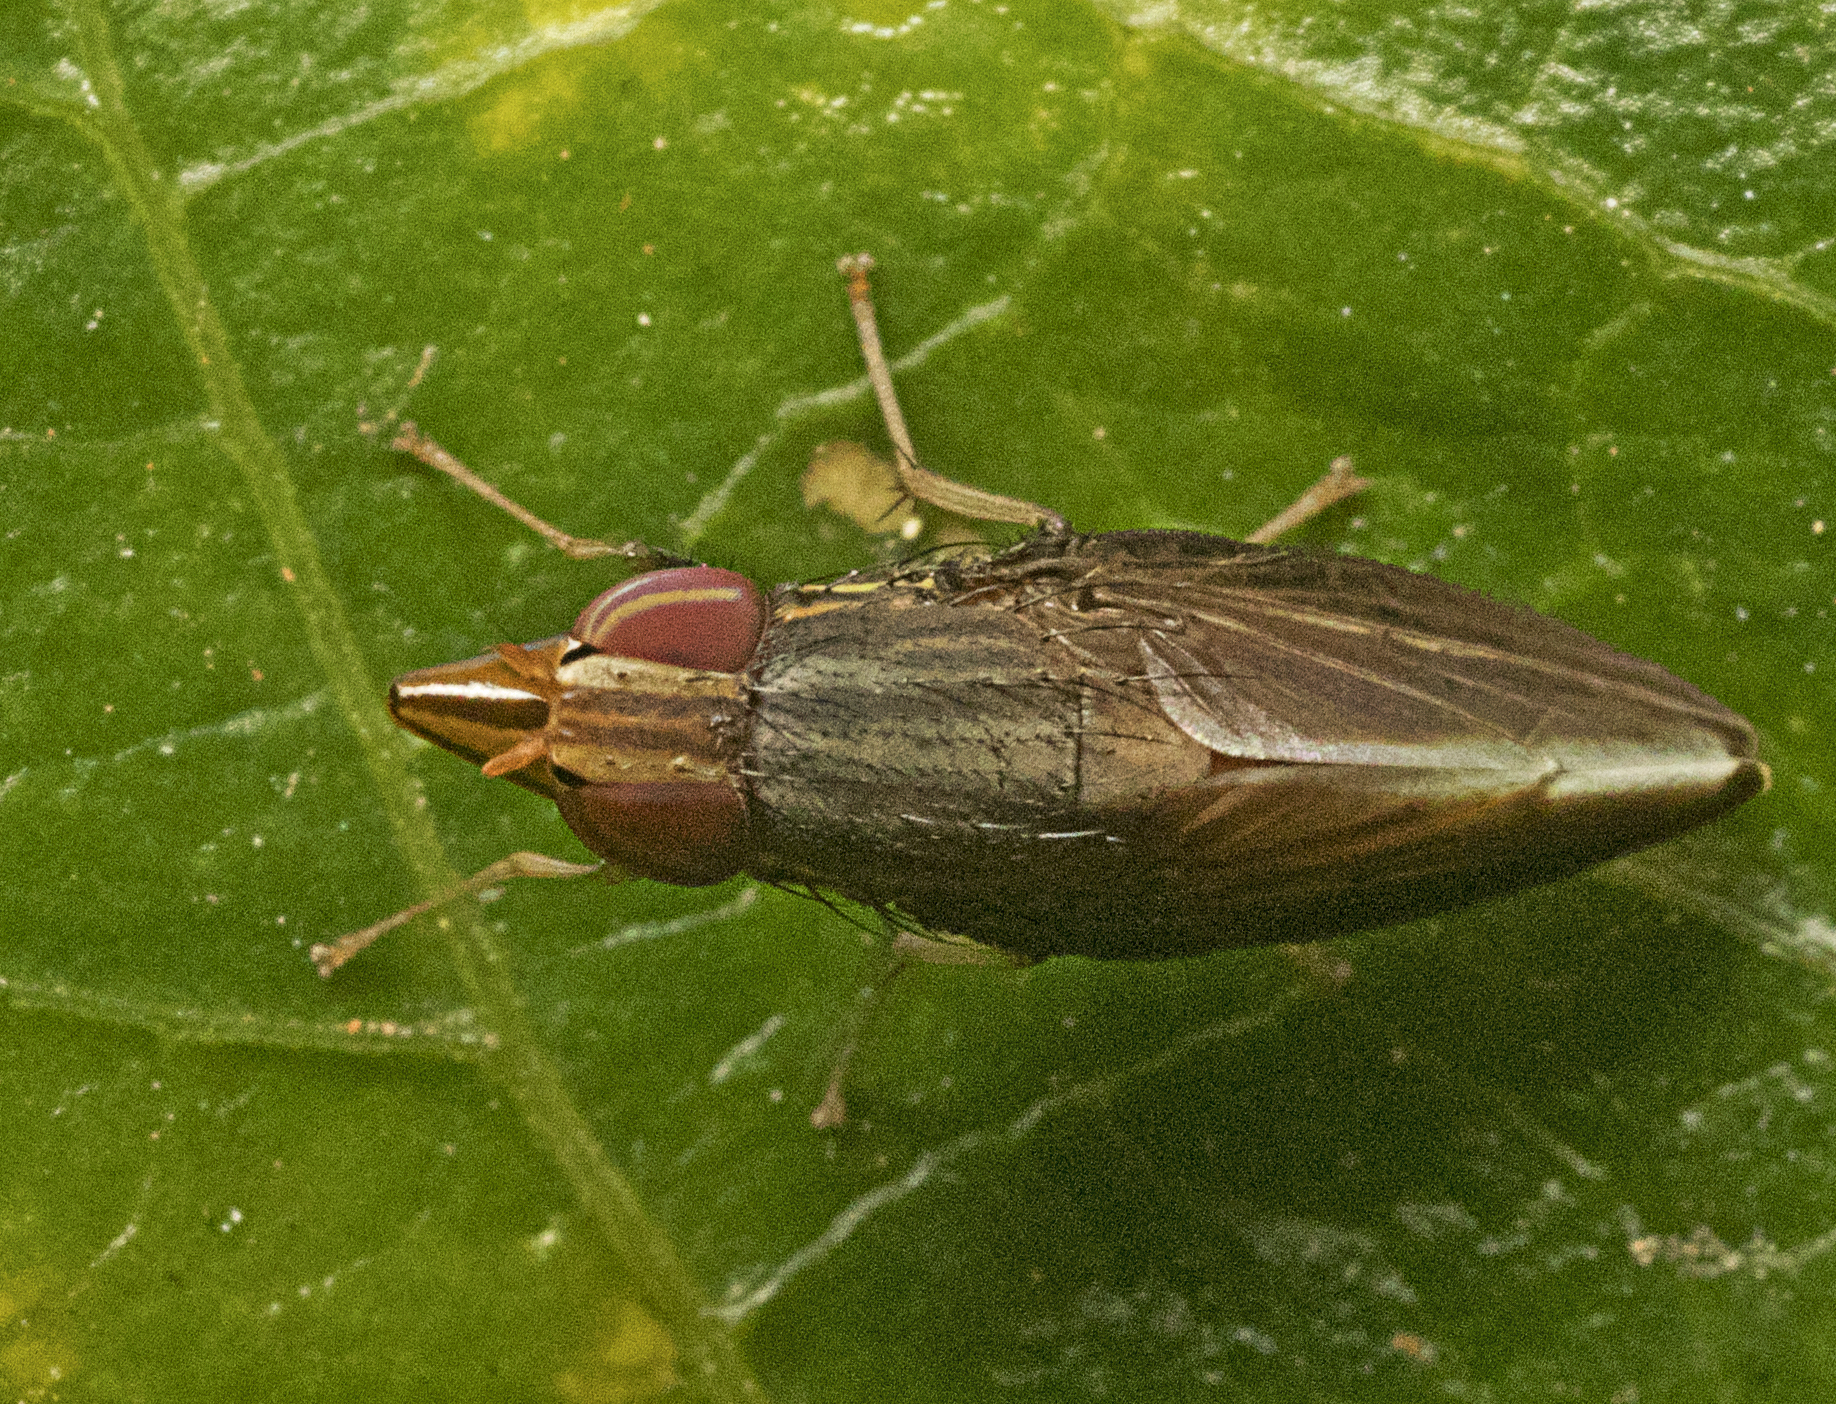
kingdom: Animalia
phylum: Arthropoda
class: Insecta
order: Diptera
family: Lauxaniidae
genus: Cephaloconus
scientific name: Cephaloconus tenebrosus
